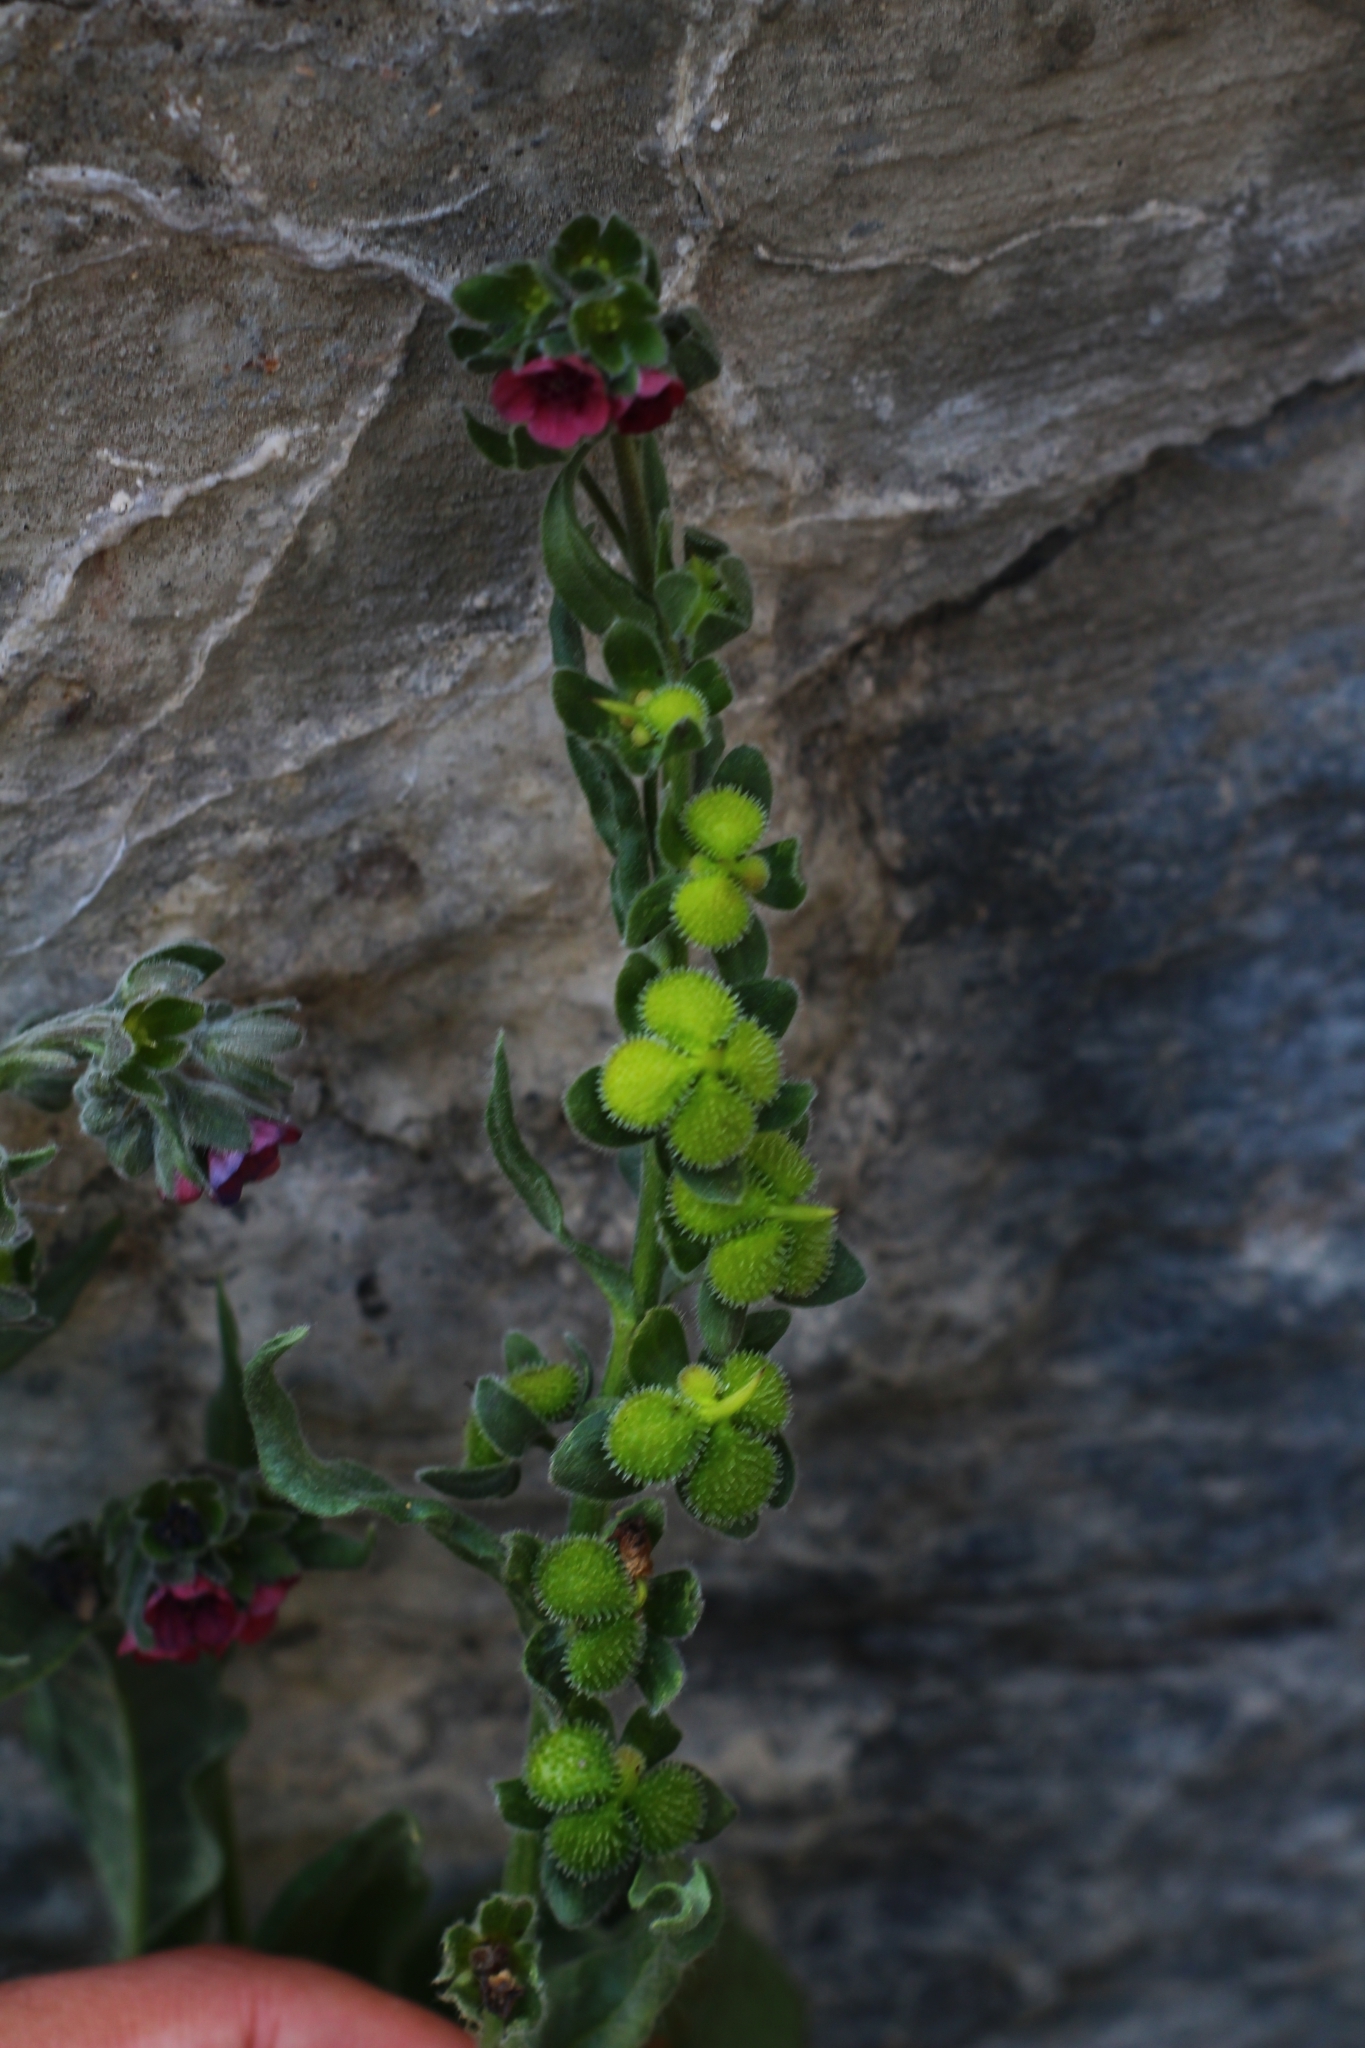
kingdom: Plantae
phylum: Tracheophyta
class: Magnoliopsida
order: Boraginales
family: Boraginaceae
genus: Cynoglossum
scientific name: Cynoglossum officinale
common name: Hound's-tongue
